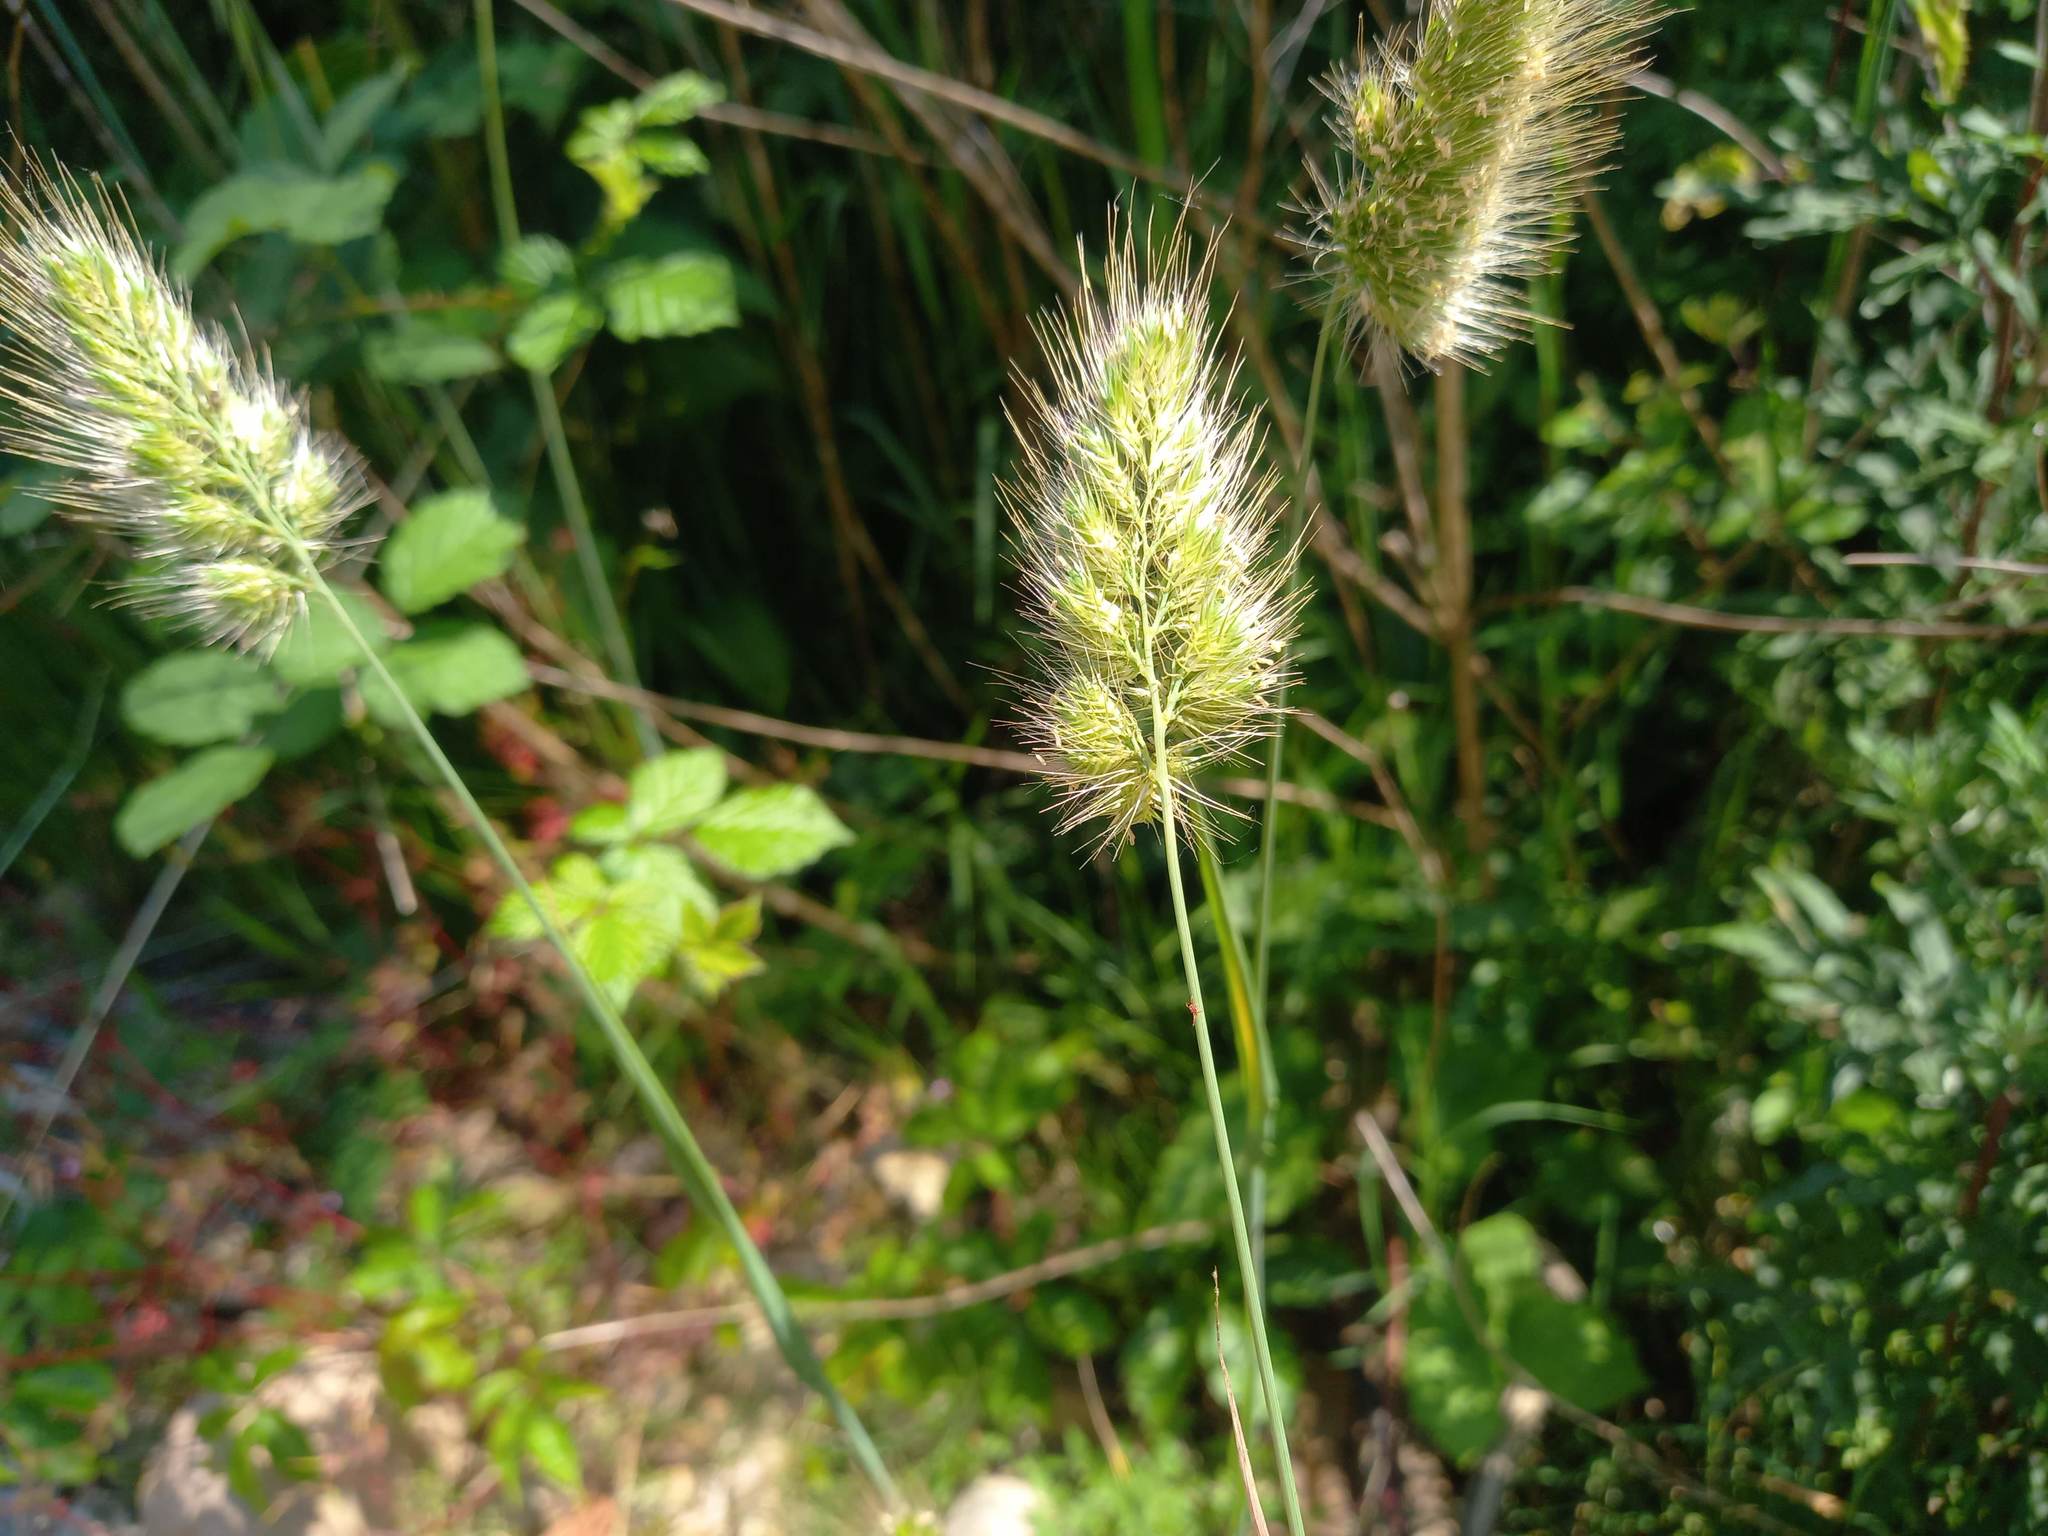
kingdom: Plantae
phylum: Tracheophyta
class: Liliopsida
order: Poales
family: Poaceae
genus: Cynosurus
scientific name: Cynosurus echinatus
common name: Rough dog's-tail
